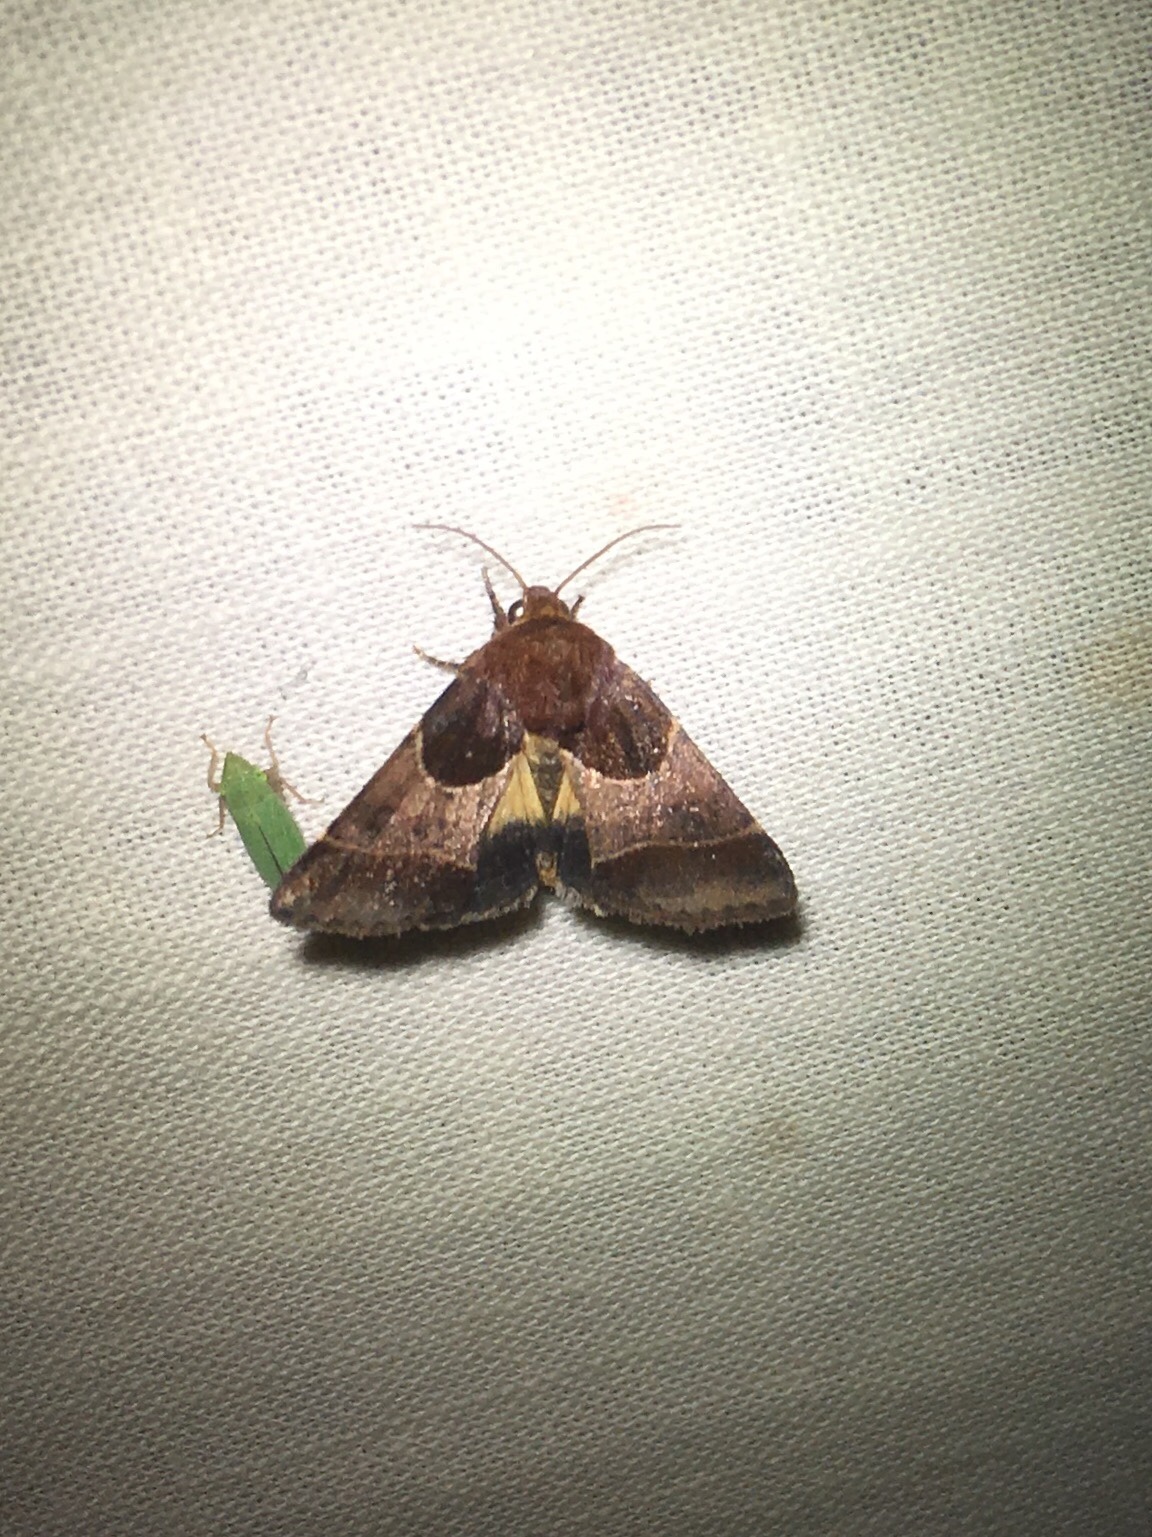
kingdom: Animalia
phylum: Arthropoda
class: Insecta
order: Lepidoptera
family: Noctuidae
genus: Schinia
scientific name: Schinia arcigera
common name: Arcigera flower moth
